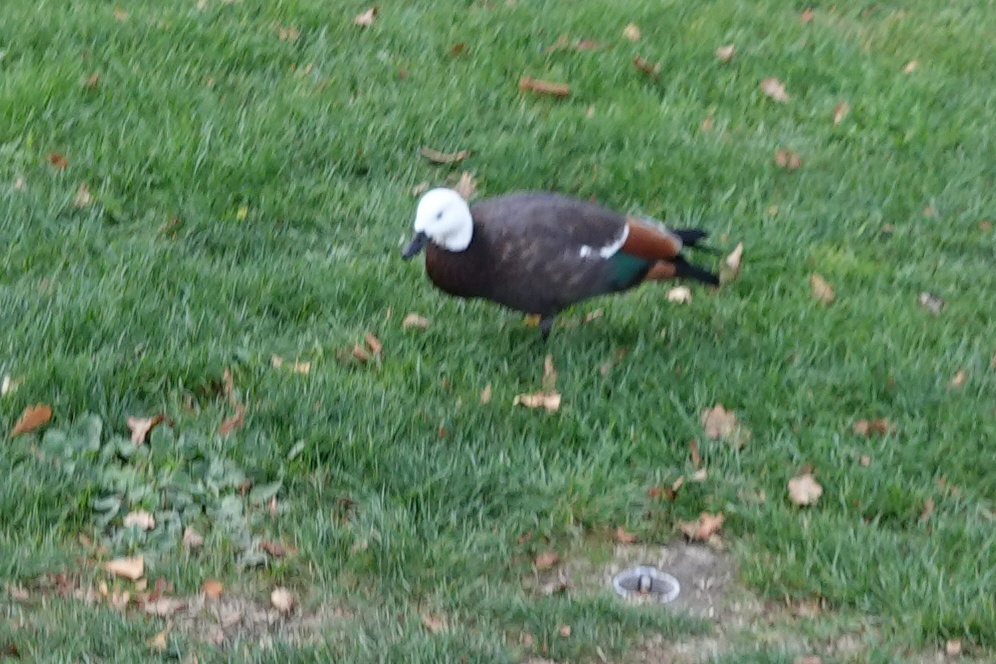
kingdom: Animalia
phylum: Chordata
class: Aves
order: Anseriformes
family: Anatidae
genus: Tadorna
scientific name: Tadorna variegata
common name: Paradise shelduck
